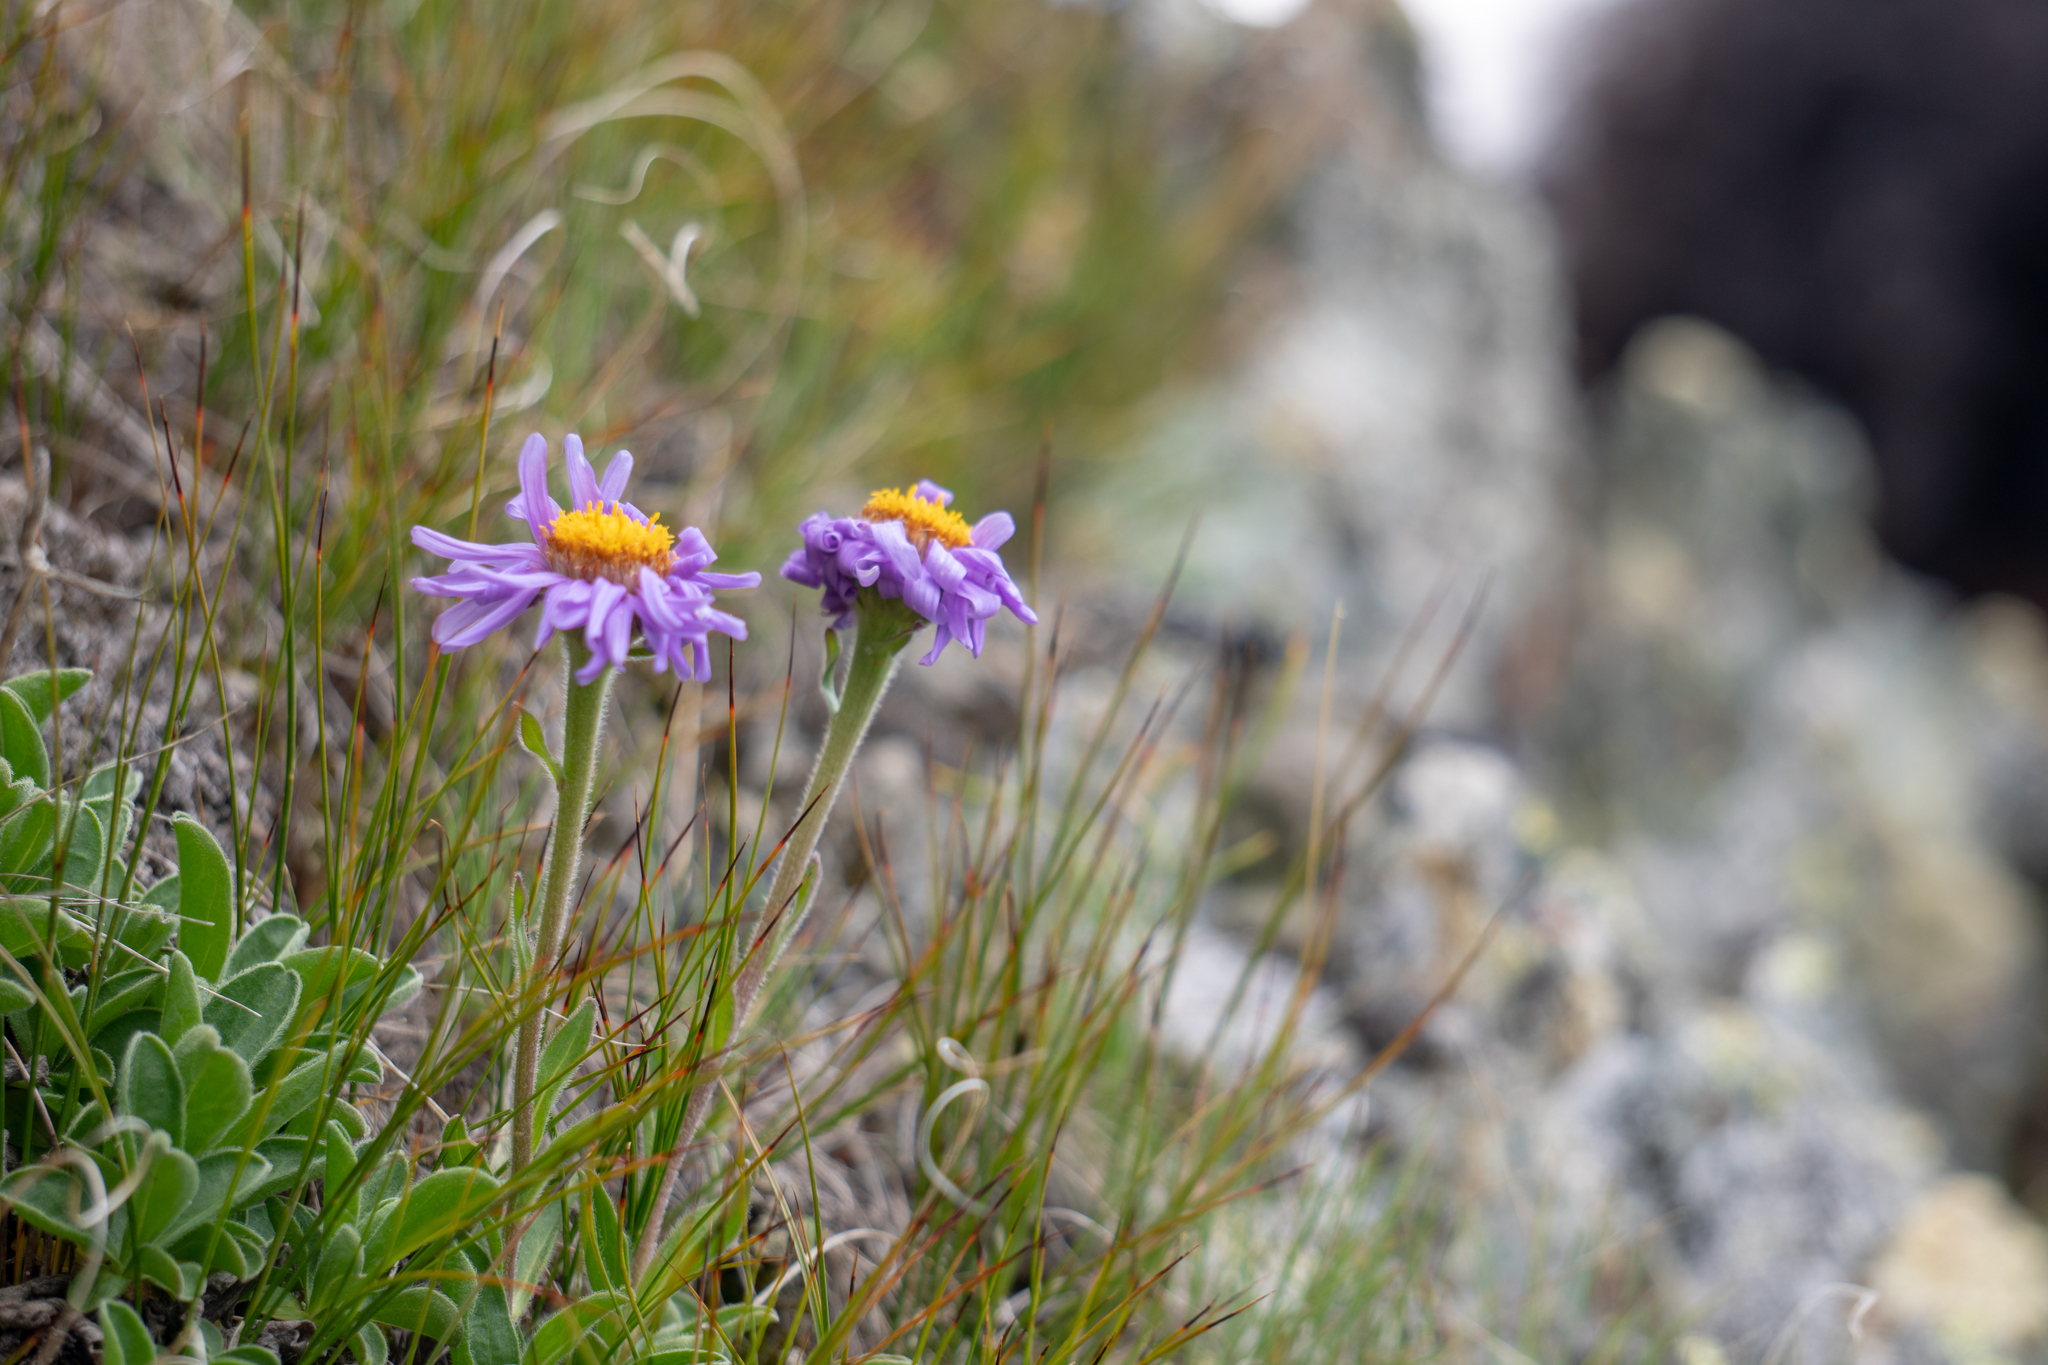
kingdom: Plantae
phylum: Tracheophyta
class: Magnoliopsida
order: Asterales
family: Asteraceae
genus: Aster
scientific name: Aster alpinus
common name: Alpine aster
